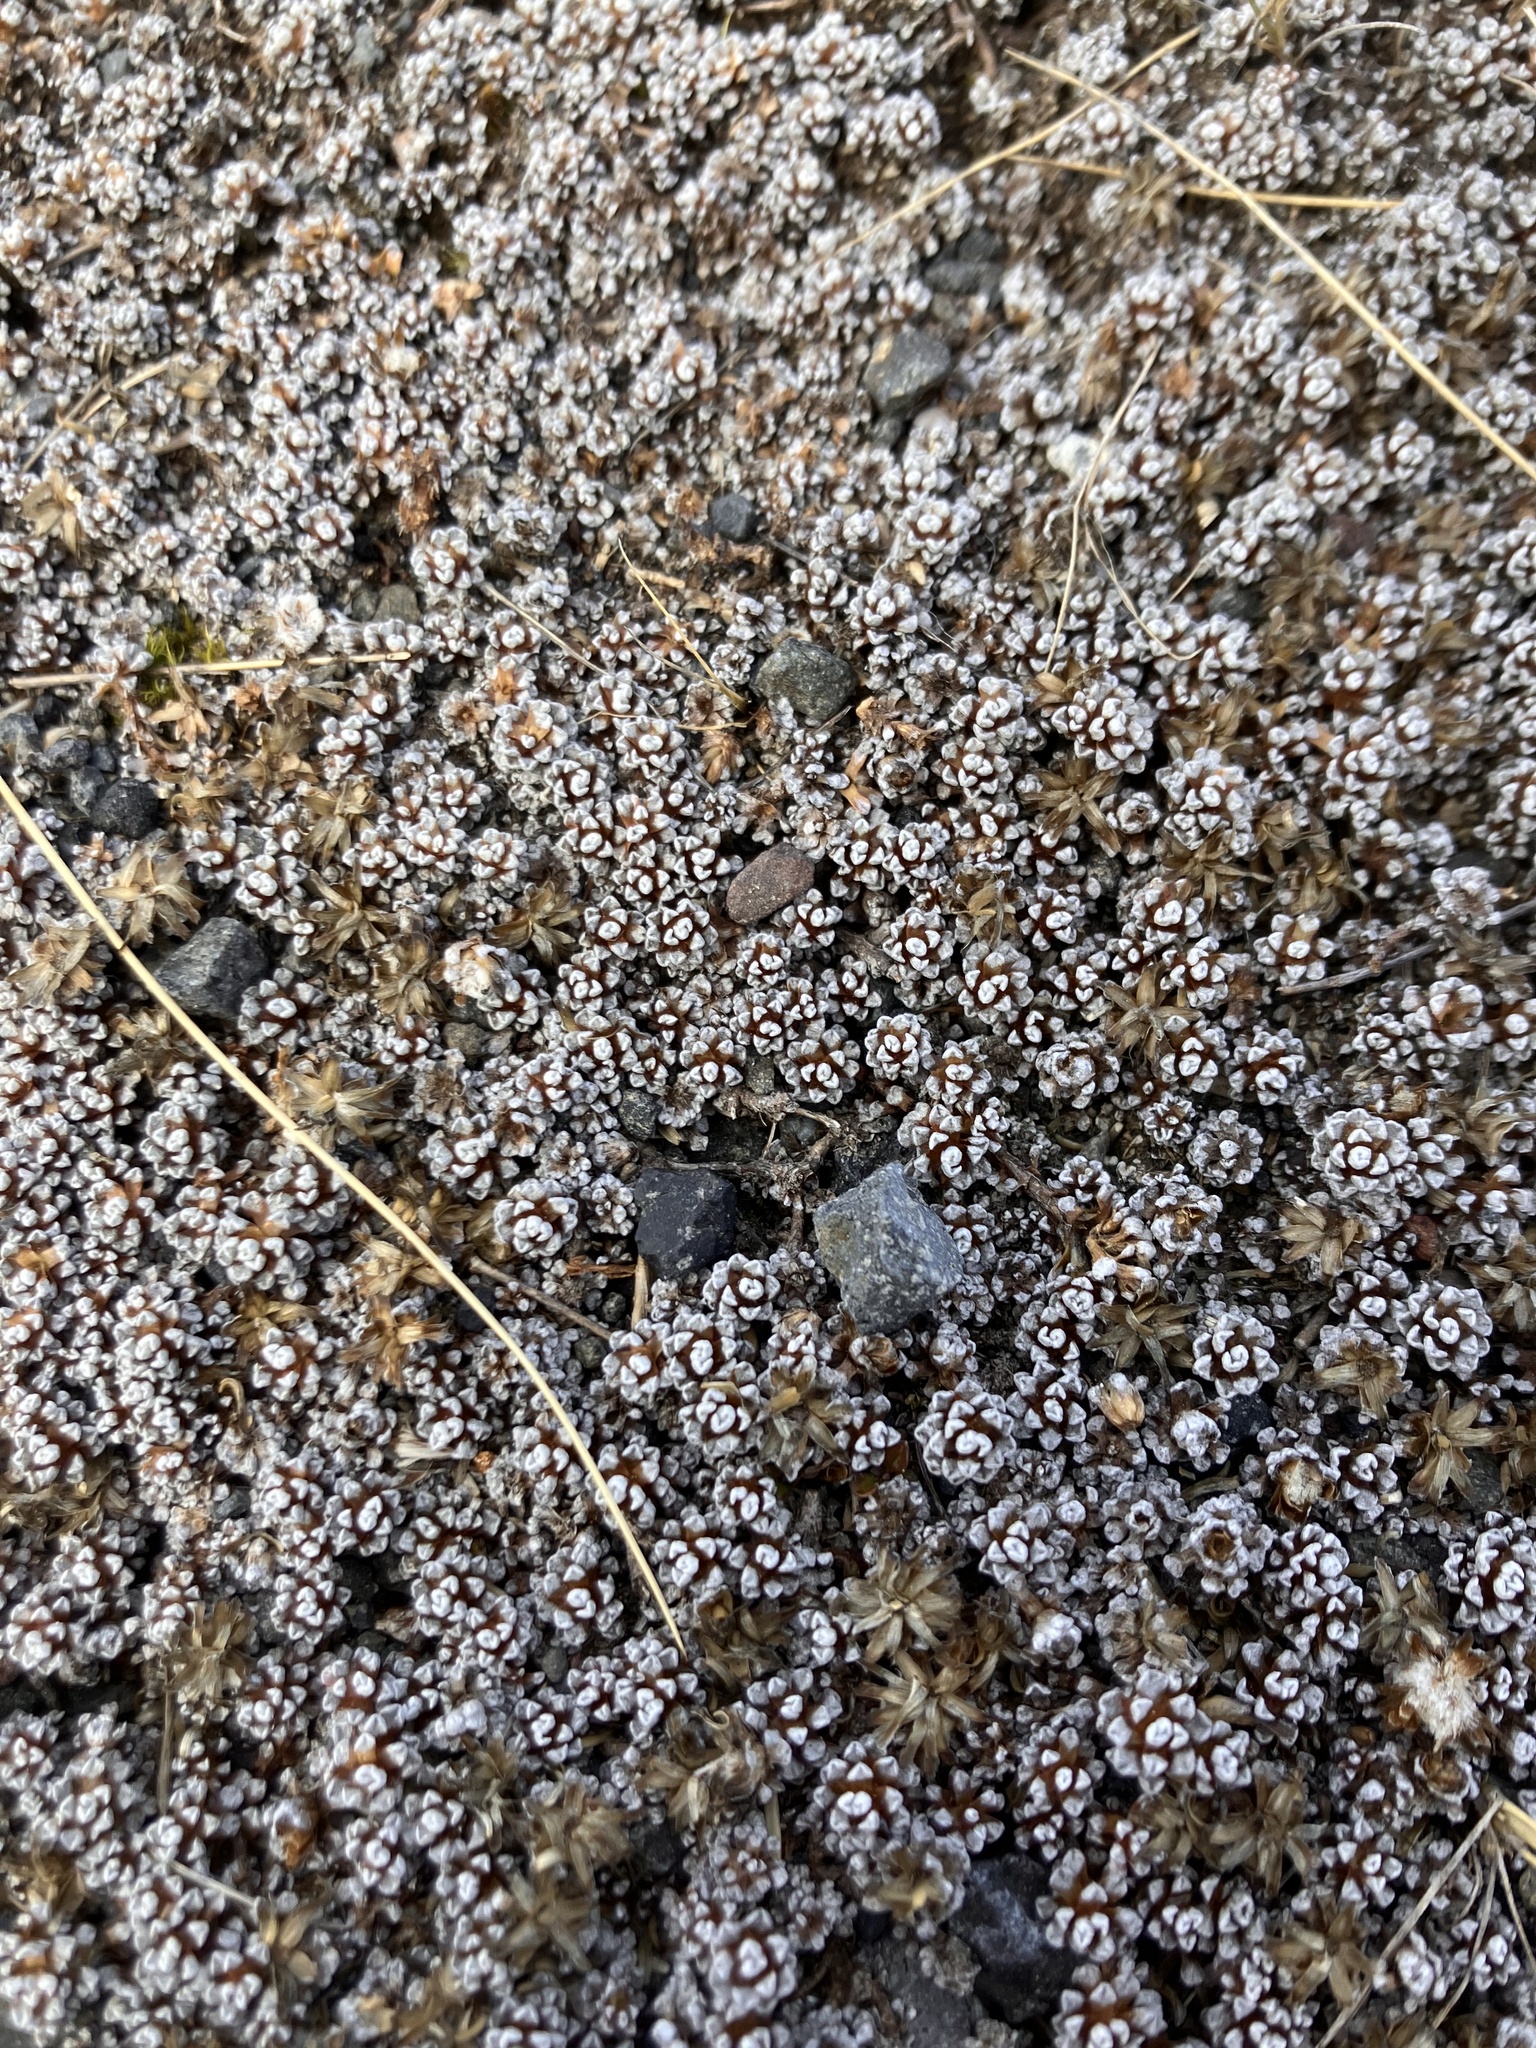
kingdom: Plantae
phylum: Tracheophyta
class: Magnoliopsida
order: Asterales
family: Asteraceae
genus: Raoulia
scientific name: Raoulia albosericea
